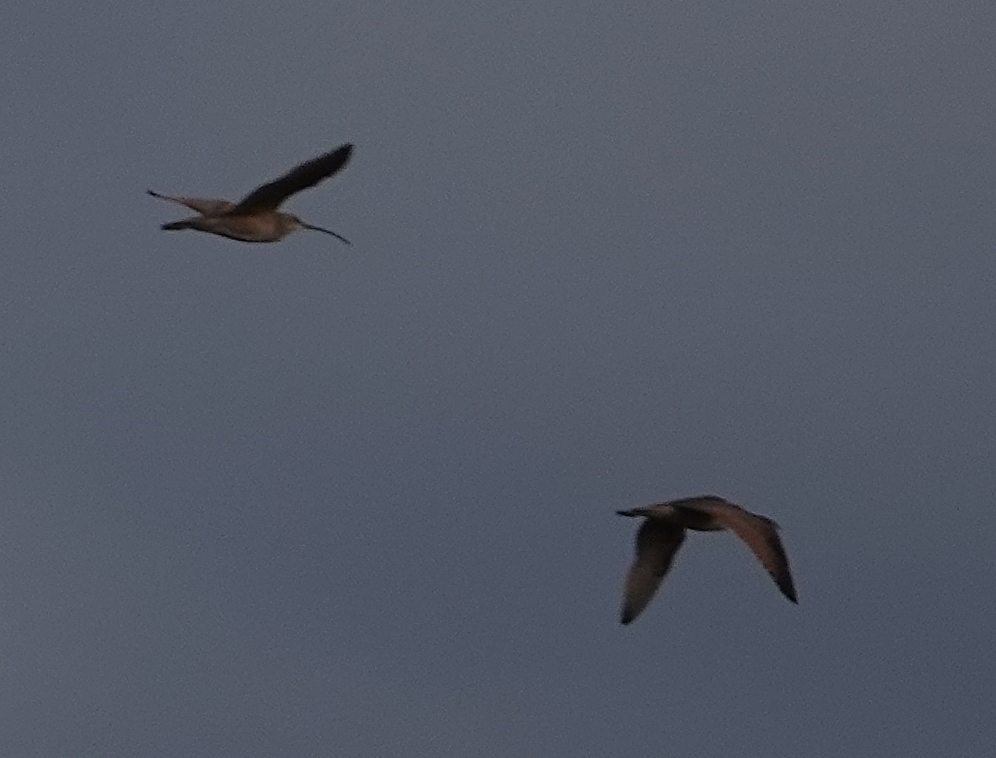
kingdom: Animalia
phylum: Chordata
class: Aves
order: Charadriiformes
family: Scolopacidae
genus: Numenius
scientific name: Numenius americanus
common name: Long-billed curlew
